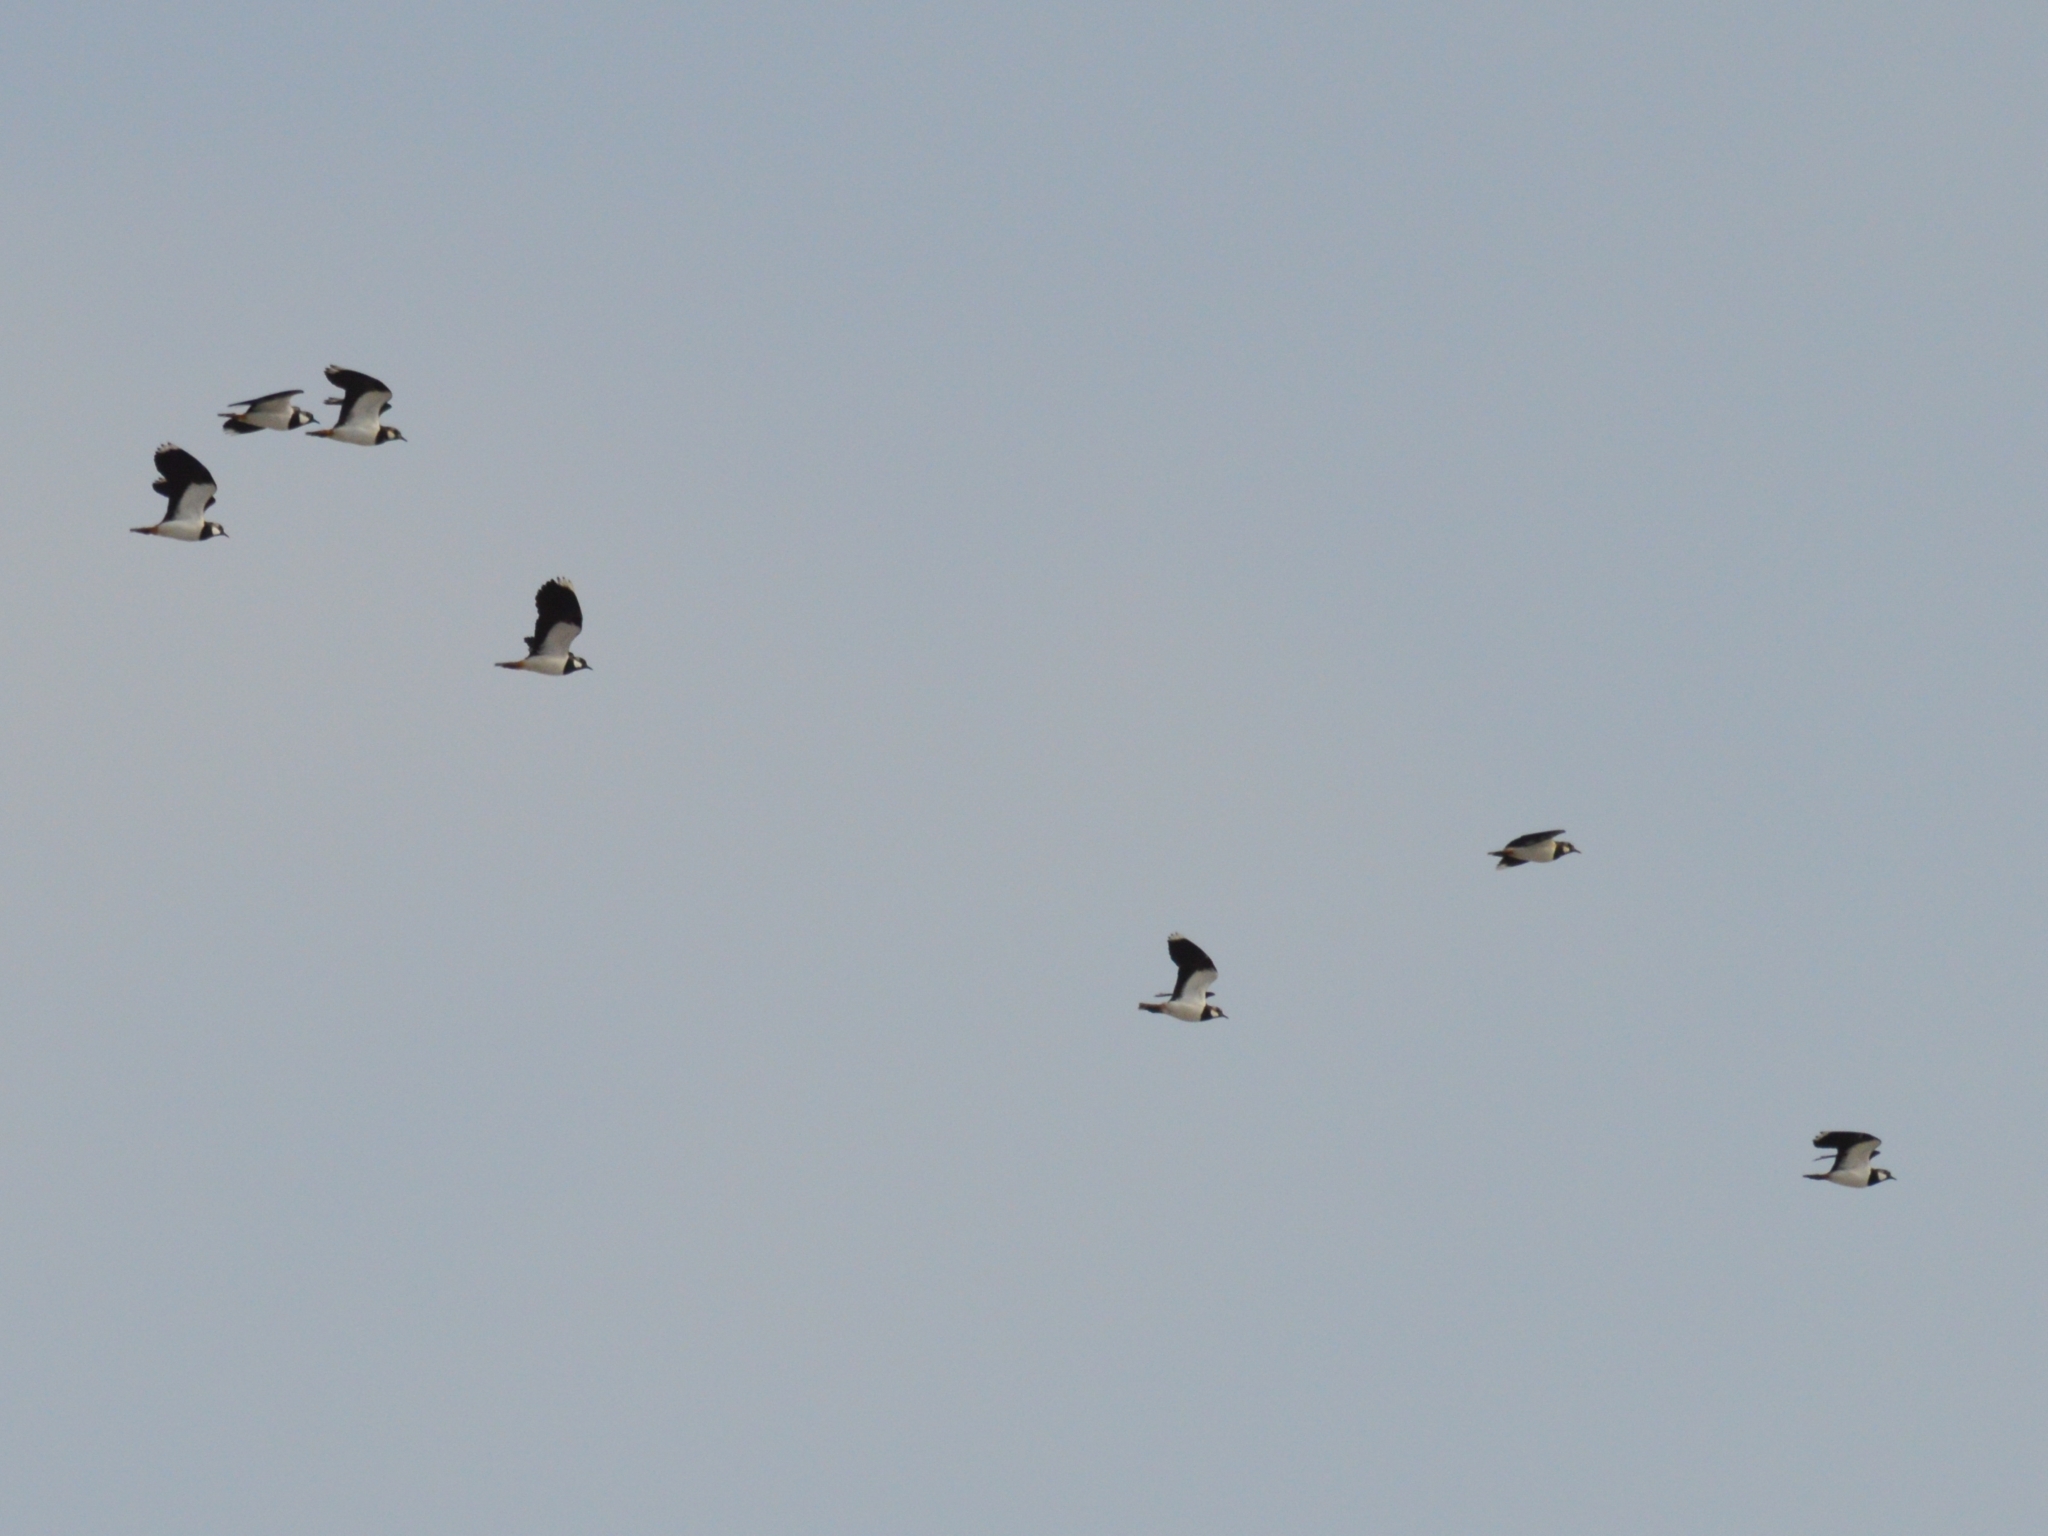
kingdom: Animalia
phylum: Chordata
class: Aves
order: Charadriiformes
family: Charadriidae
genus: Vanellus
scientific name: Vanellus vanellus
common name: Northern lapwing
